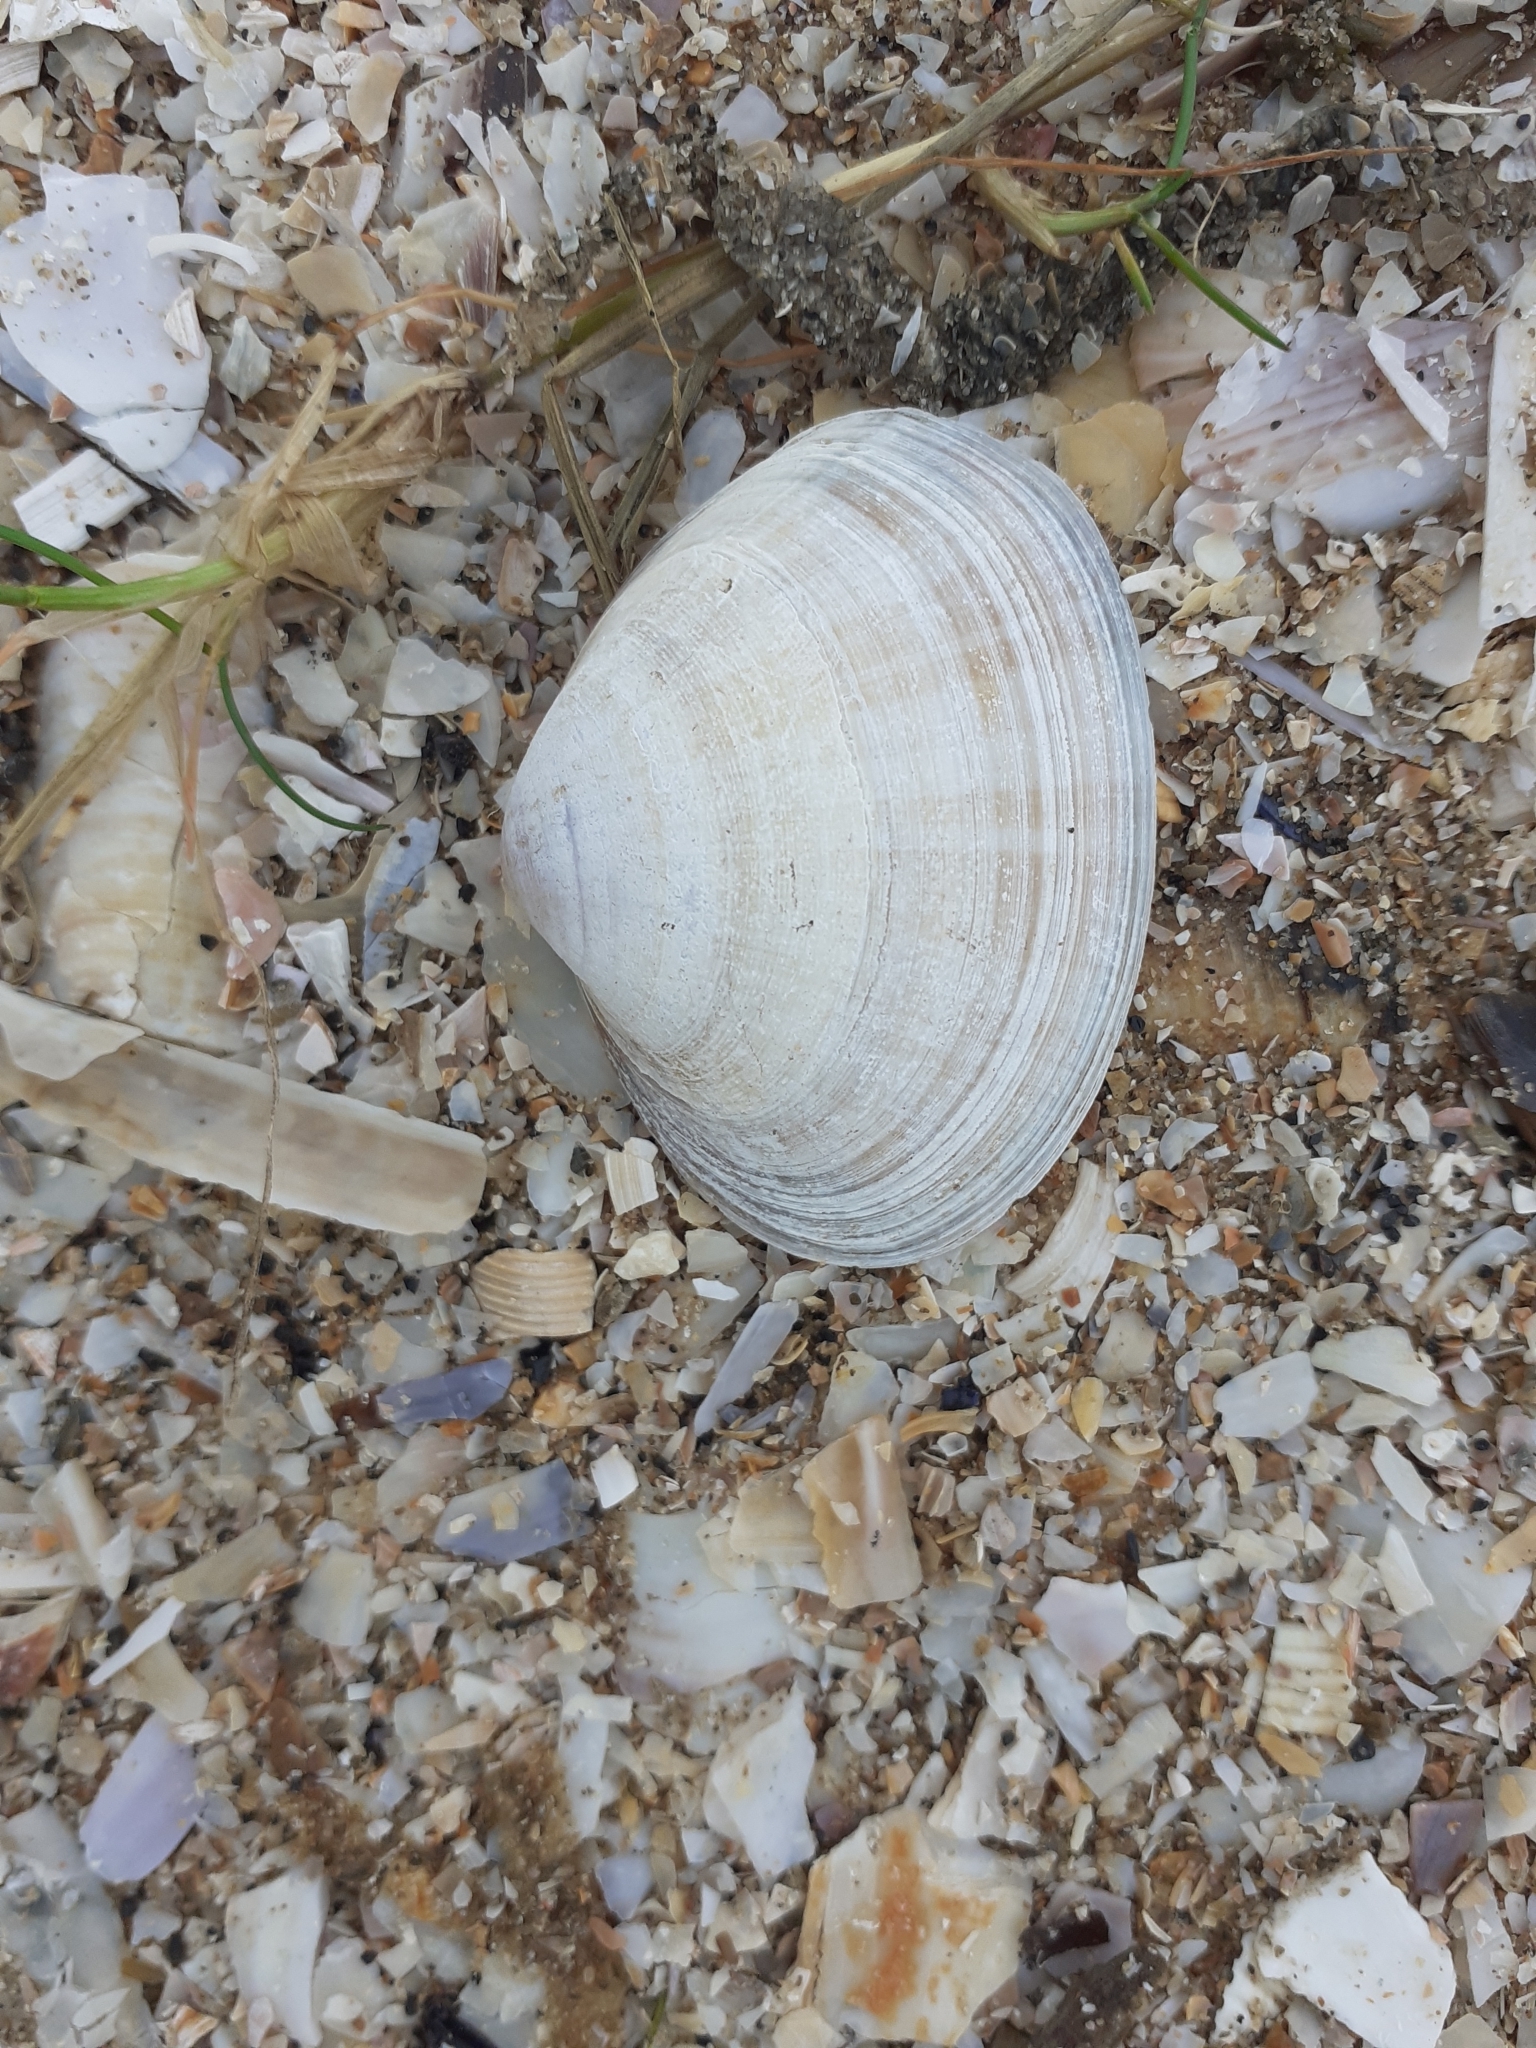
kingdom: Animalia
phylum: Mollusca
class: Bivalvia
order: Venerida
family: Mactridae
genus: Mactra
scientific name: Mactra stultorum
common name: Rayed trough shell
